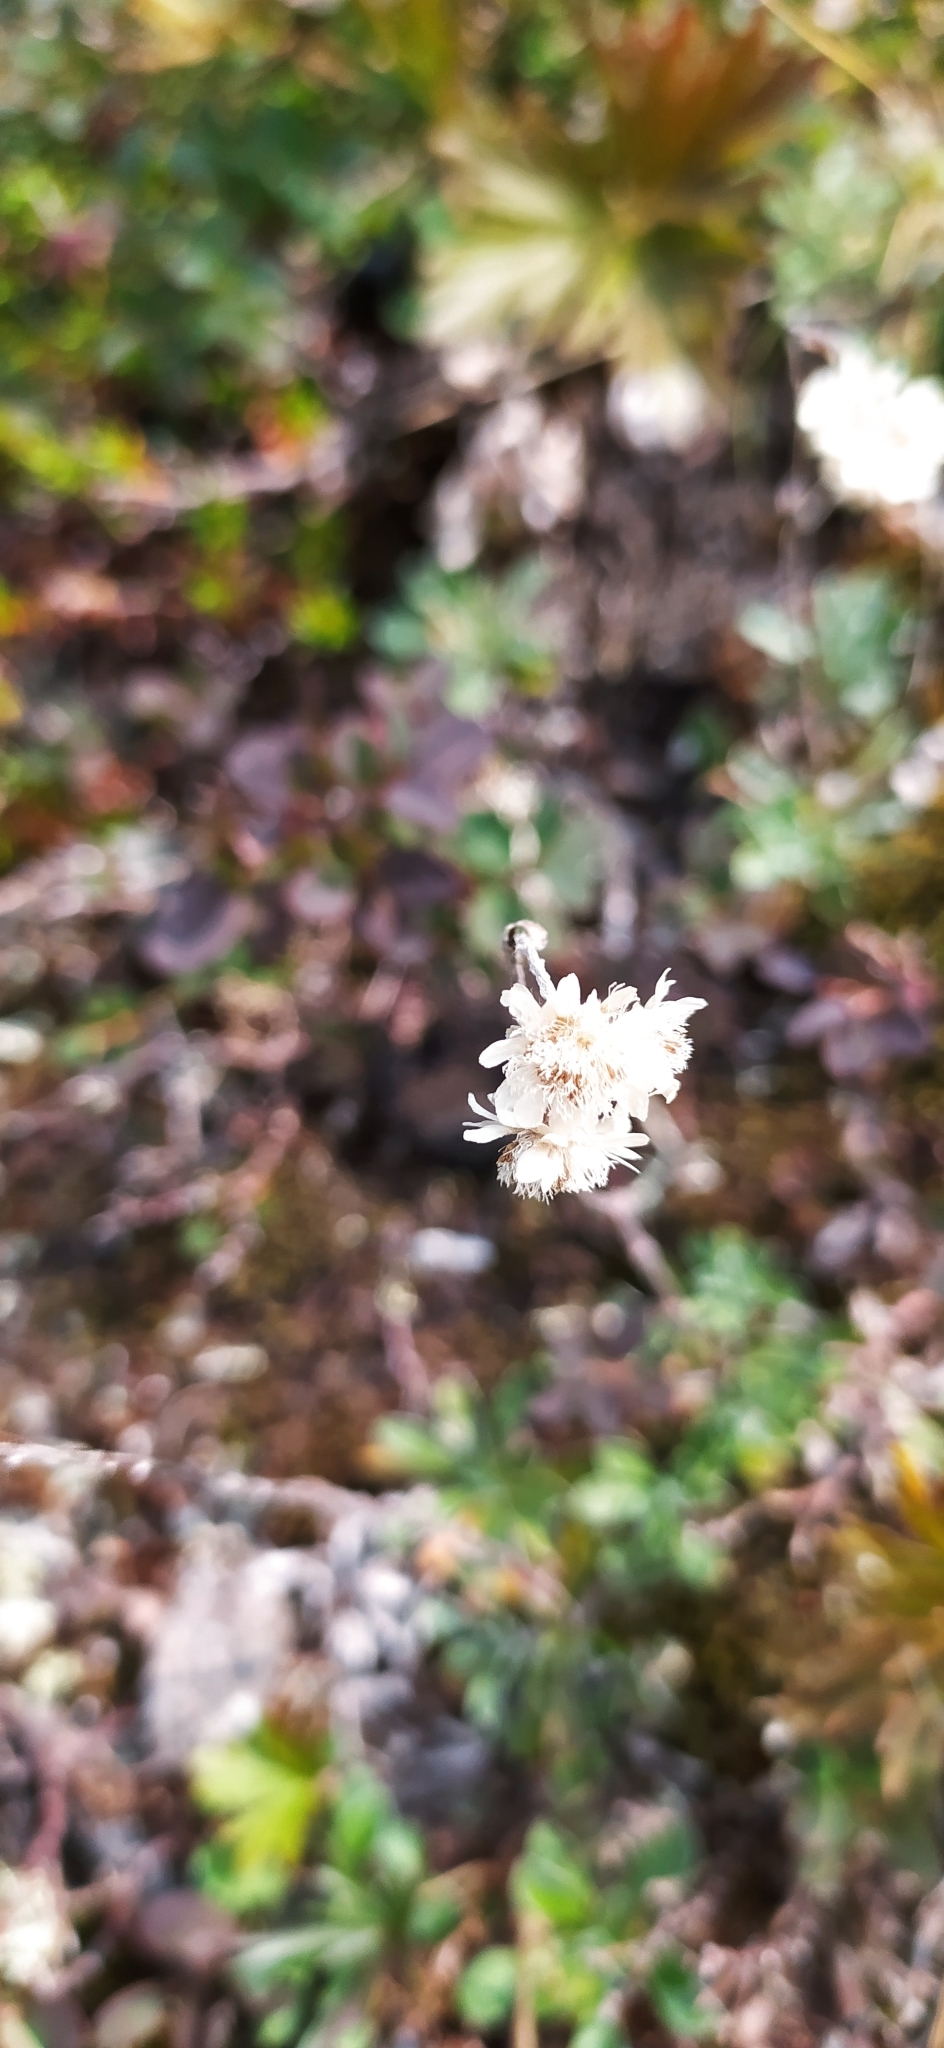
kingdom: Plantae
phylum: Tracheophyta
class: Magnoliopsida
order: Asterales
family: Asteraceae
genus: Antennaria
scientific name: Antennaria dioica
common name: Mountain everlasting
